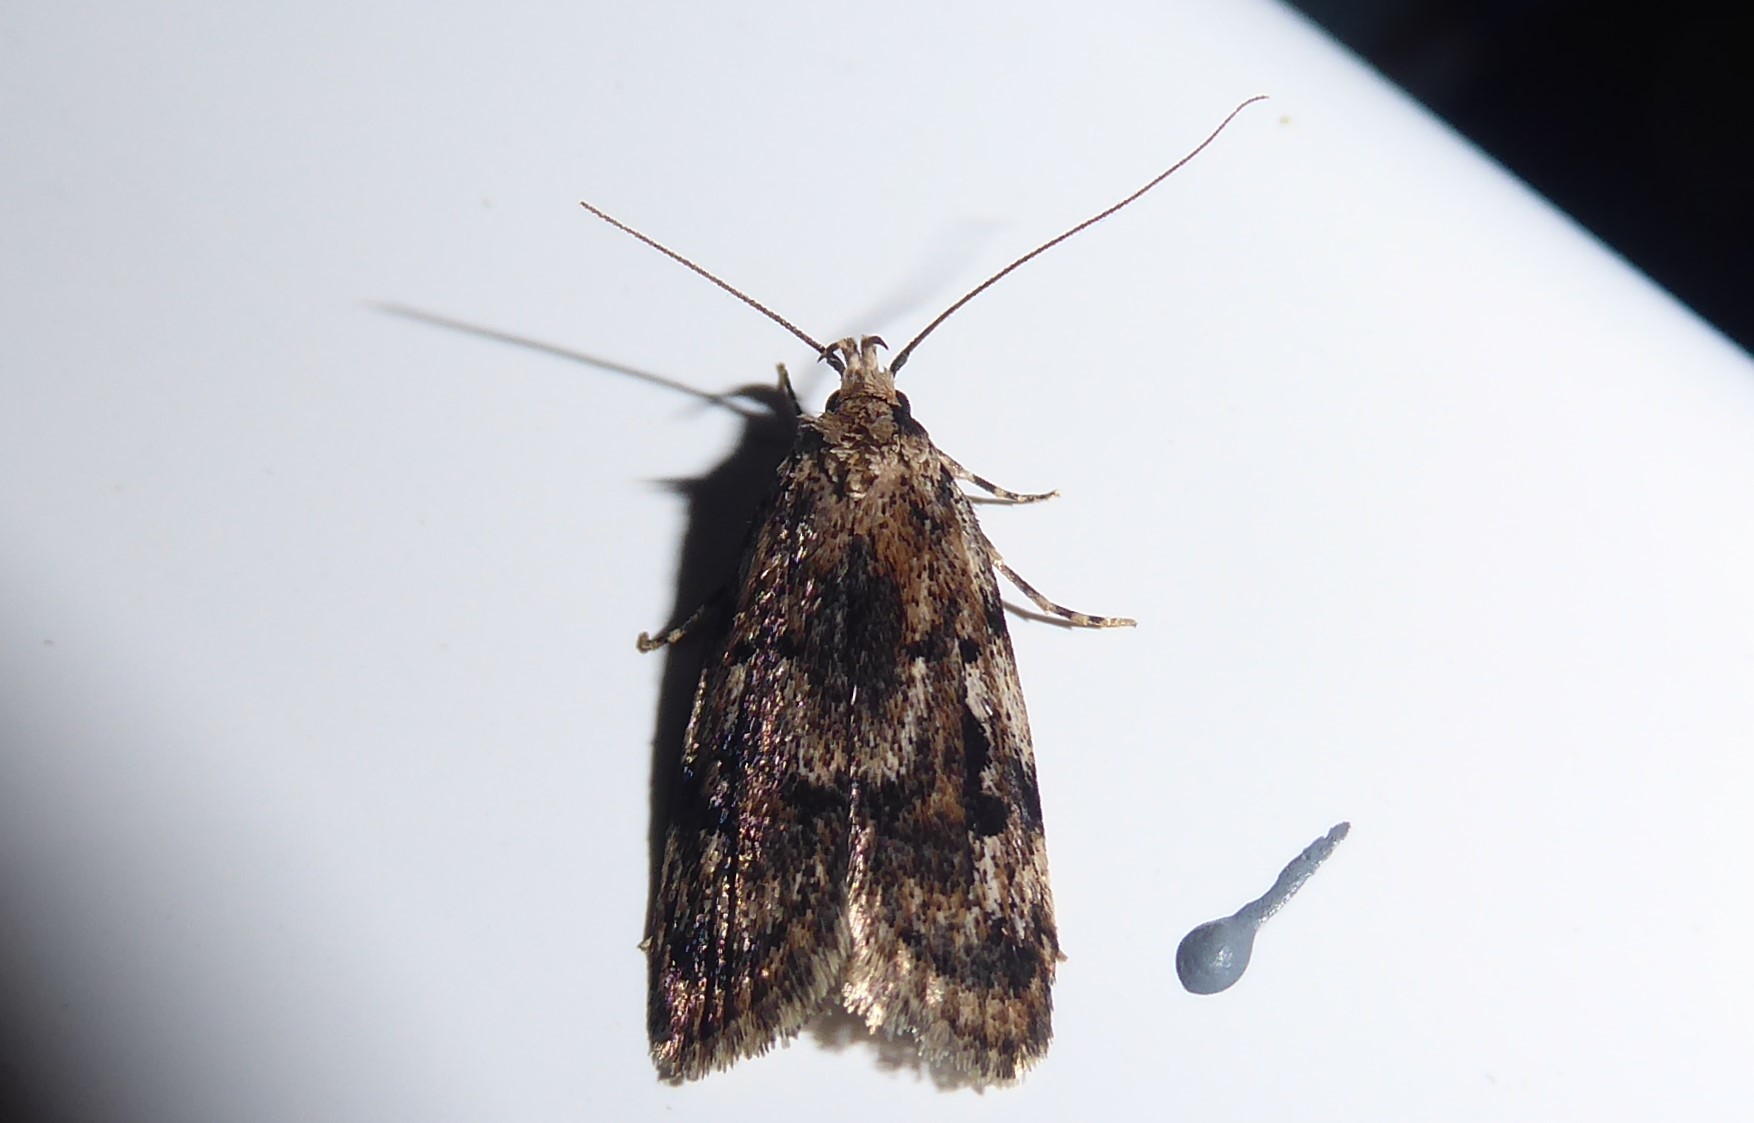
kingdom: Animalia
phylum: Arthropoda
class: Insecta
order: Lepidoptera
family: Oecophoridae
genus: Barea
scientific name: Barea exarcha
